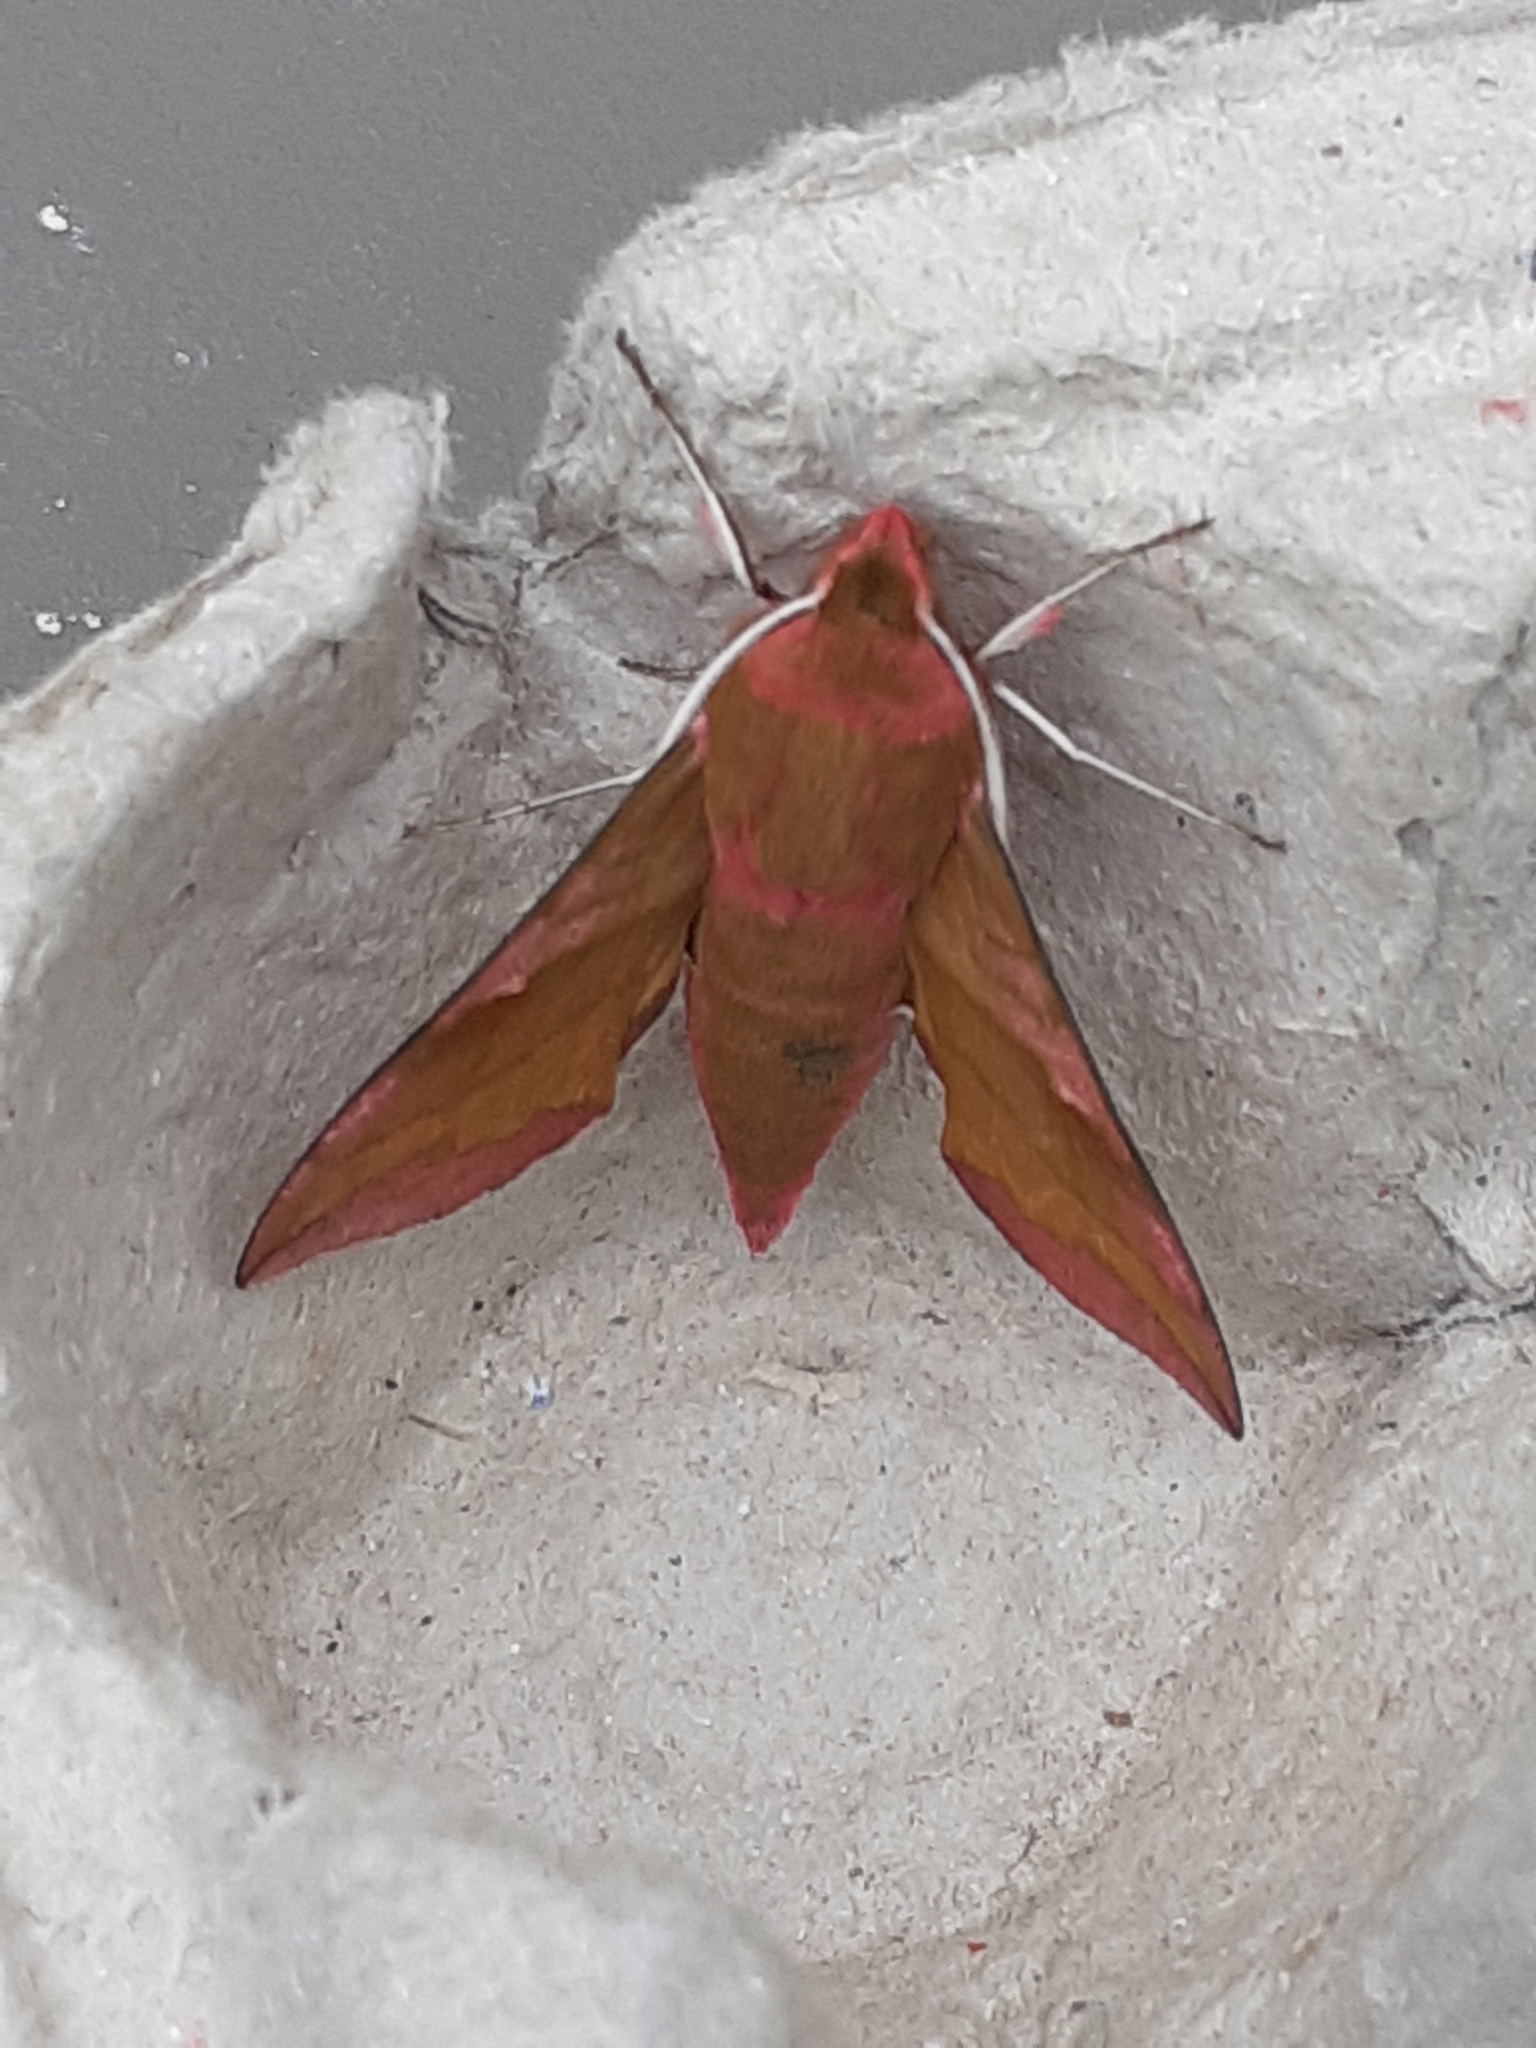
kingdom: Animalia
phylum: Arthropoda
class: Insecta
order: Lepidoptera
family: Sphingidae
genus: Deilephila
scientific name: Deilephila porcellus
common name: Small elephant hawk-moth
